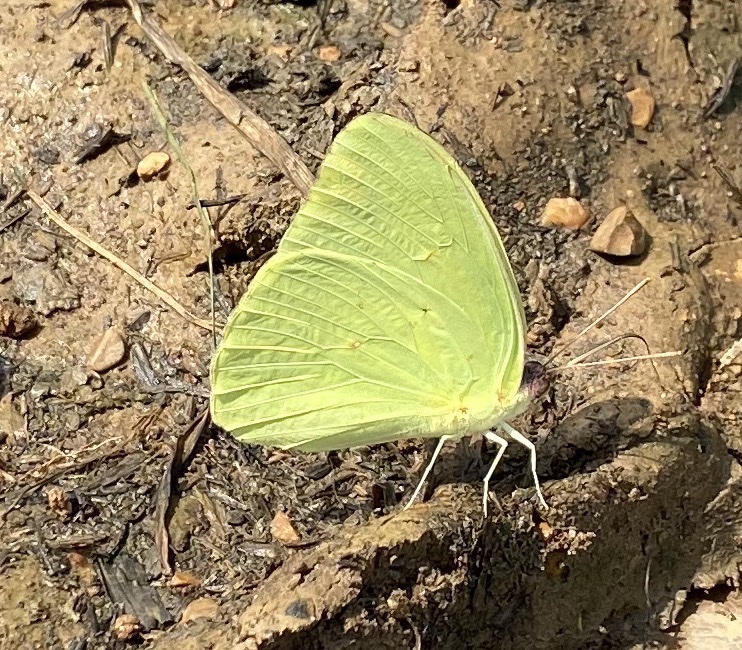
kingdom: Animalia
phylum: Arthropoda
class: Insecta
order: Lepidoptera
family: Pieridae
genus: Phoebis
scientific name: Phoebis sennae
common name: Cloudless sulphur
